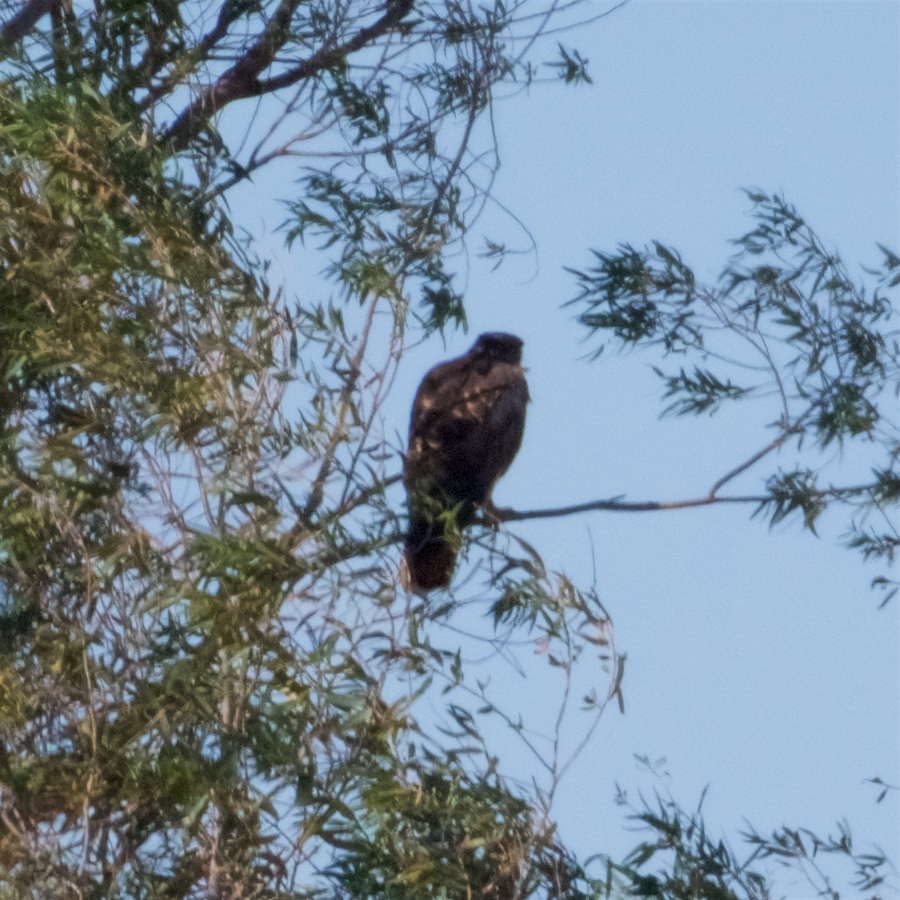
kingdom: Animalia
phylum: Chordata
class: Aves
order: Accipitriformes
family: Accipitridae
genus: Buteo
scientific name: Buteo jamaicensis
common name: Red-tailed hawk
